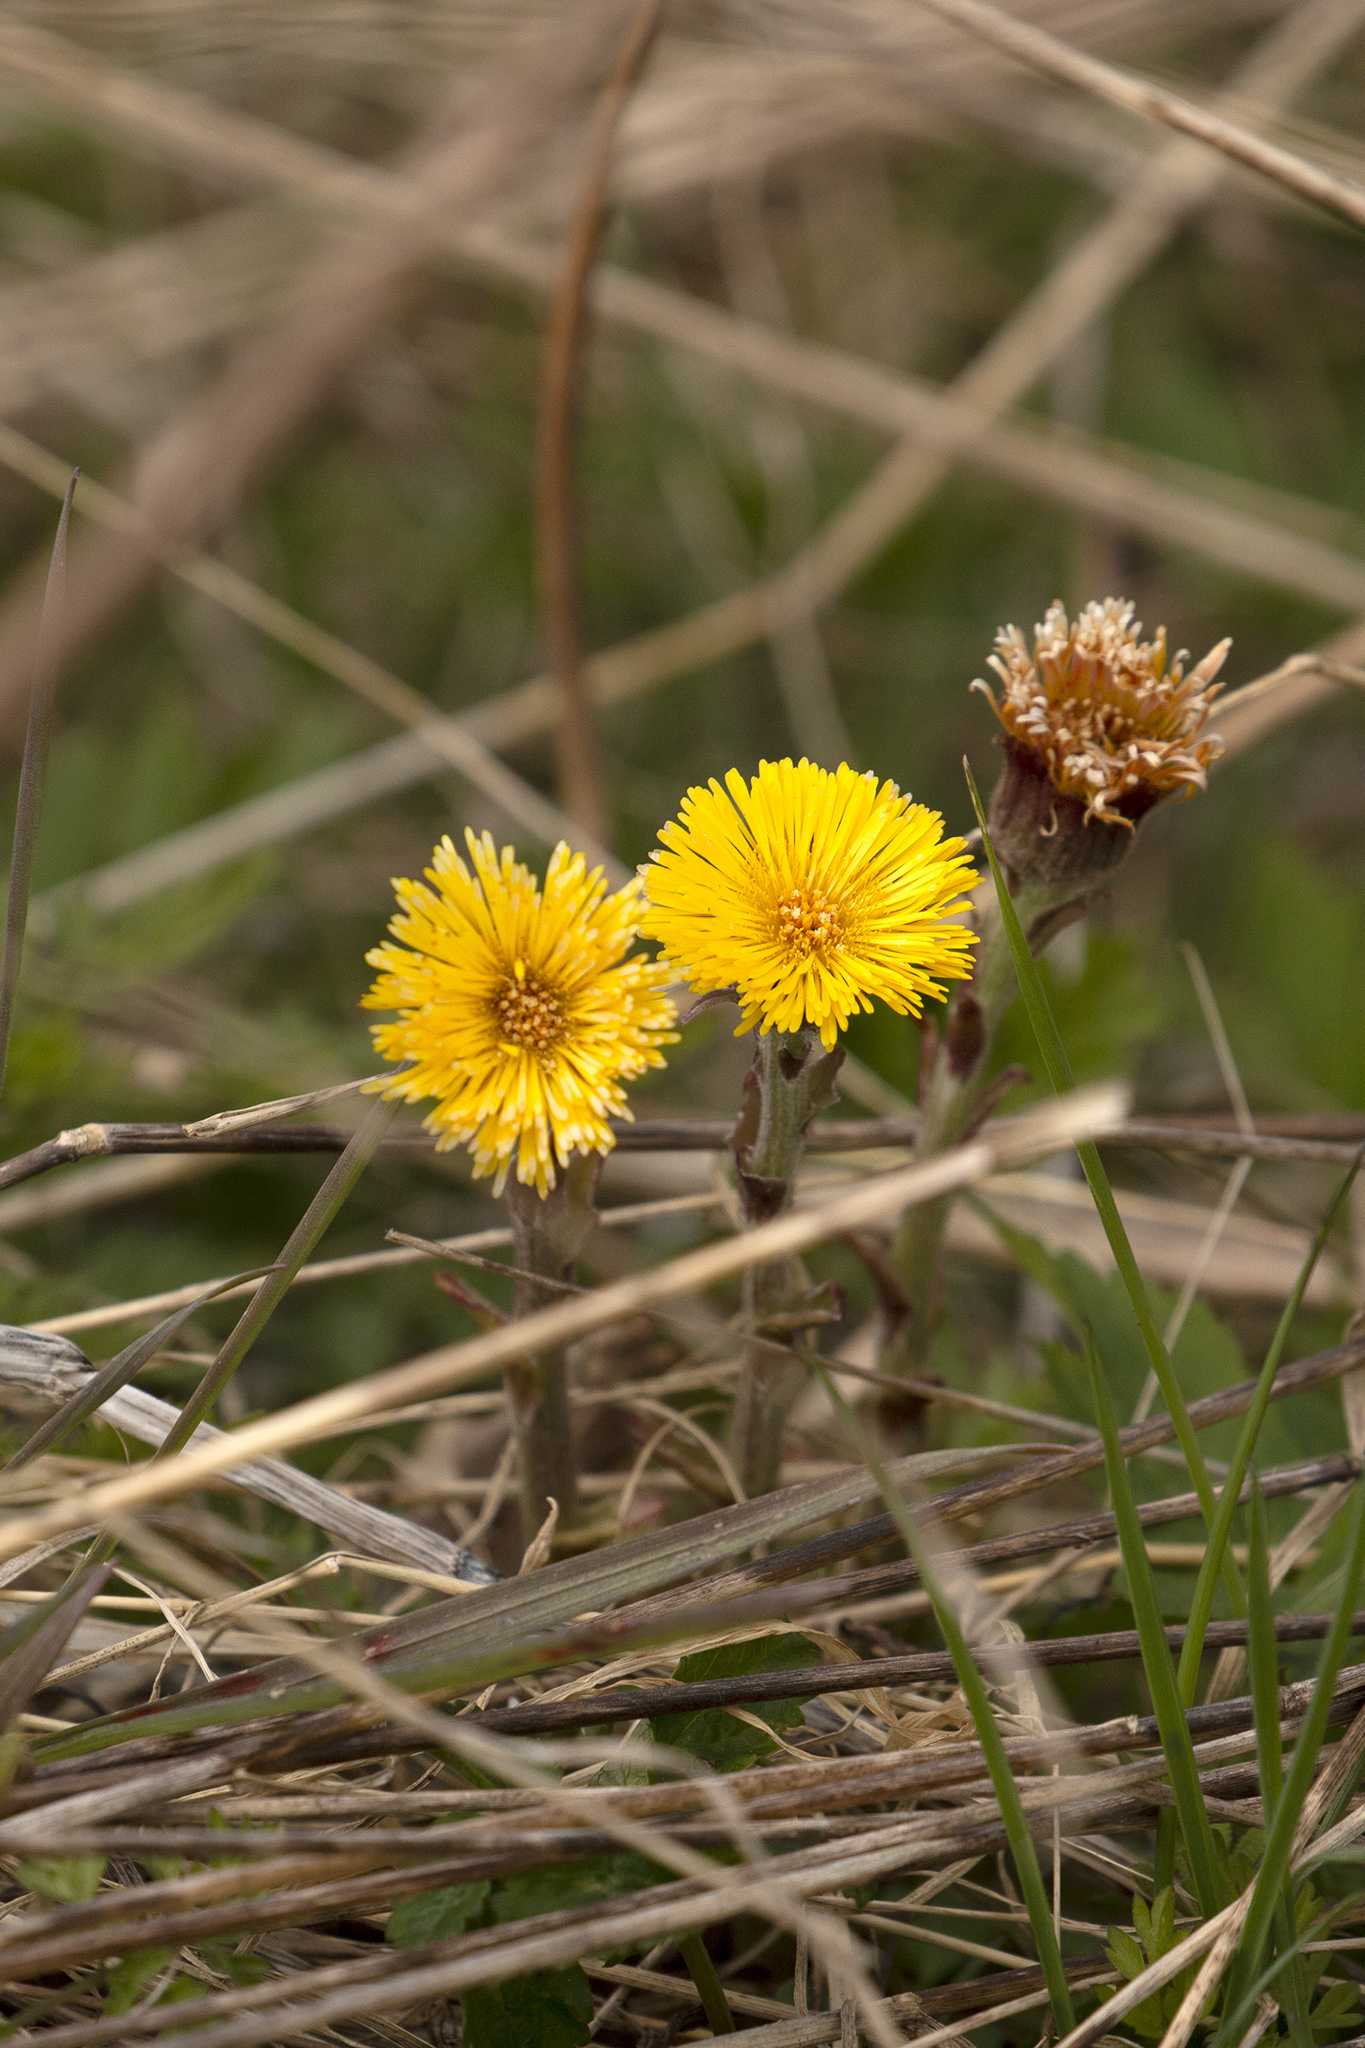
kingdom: Plantae
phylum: Tracheophyta
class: Magnoliopsida
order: Asterales
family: Asteraceae
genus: Tussilago
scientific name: Tussilago farfara
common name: Coltsfoot
